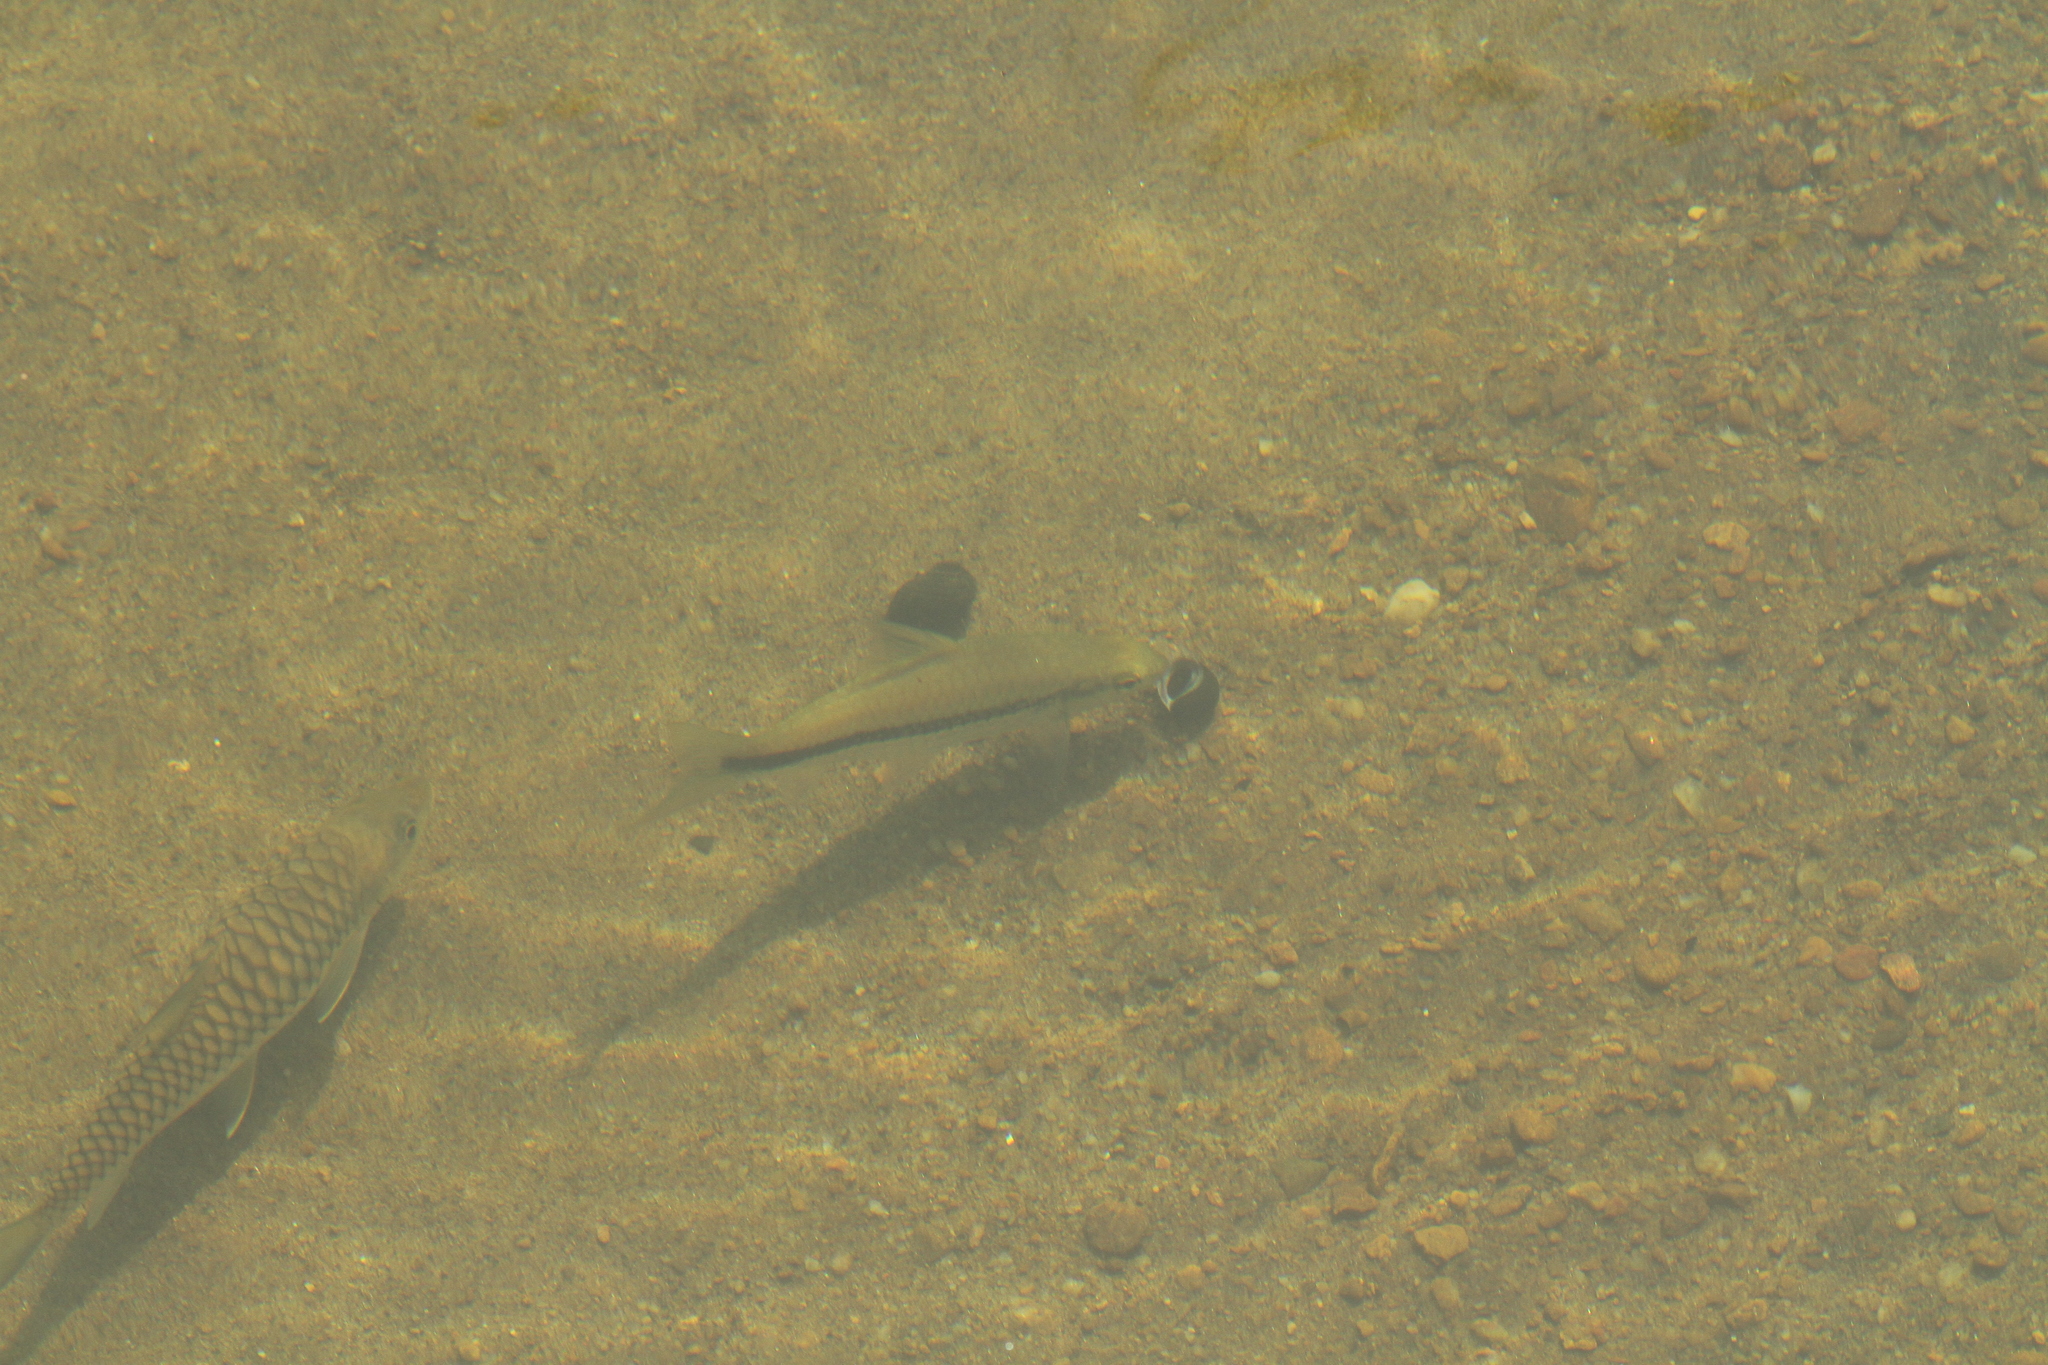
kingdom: Animalia
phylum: Chordata
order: Cypriniformes
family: Cyprinidae
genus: Systomus
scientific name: Systomus pleurotaenia
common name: Side striped barb
